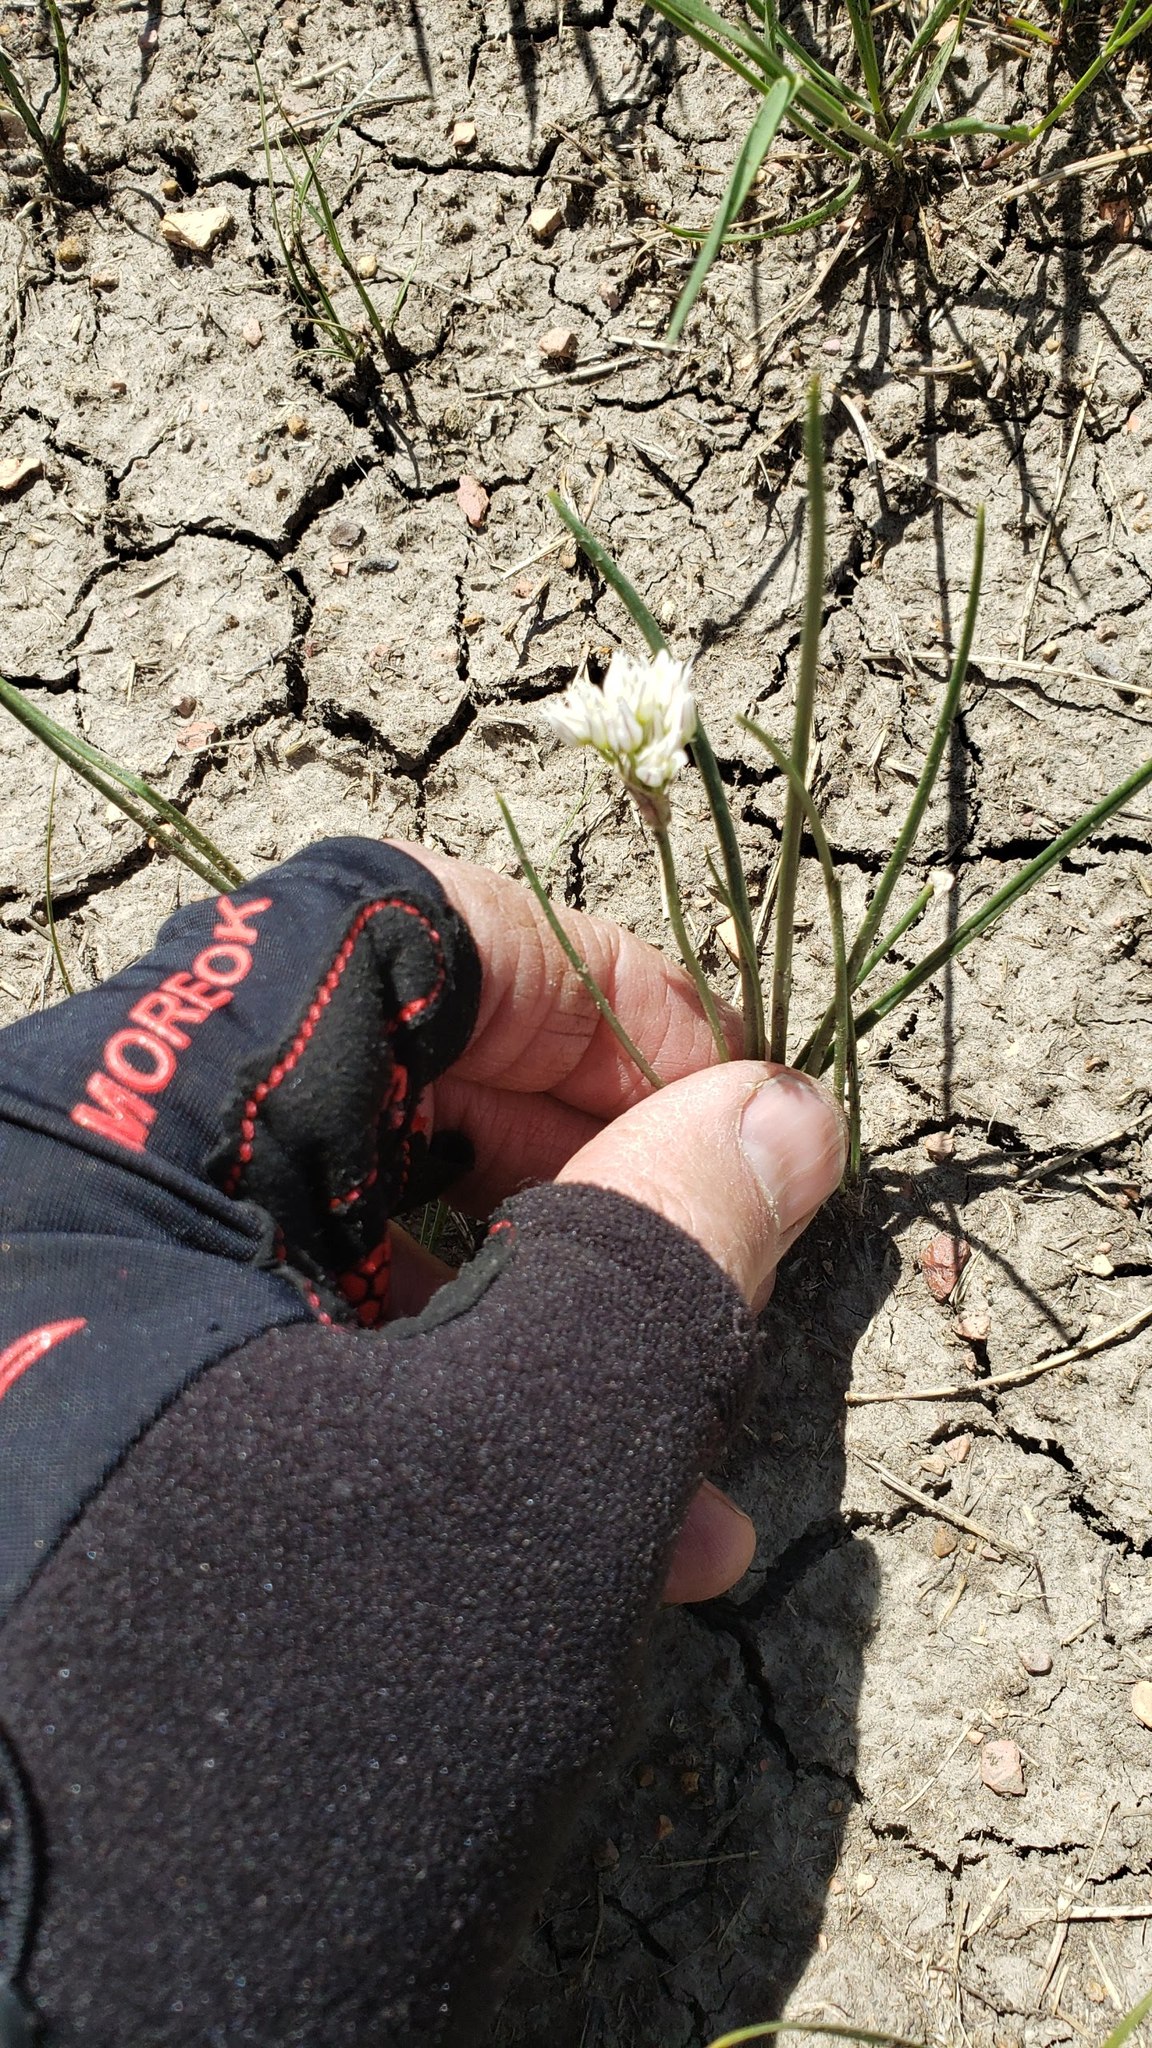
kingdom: Plantae
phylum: Tracheophyta
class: Liliopsida
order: Asparagales
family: Amaryllidaceae
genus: Allium
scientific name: Allium textile
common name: Prairie onion
